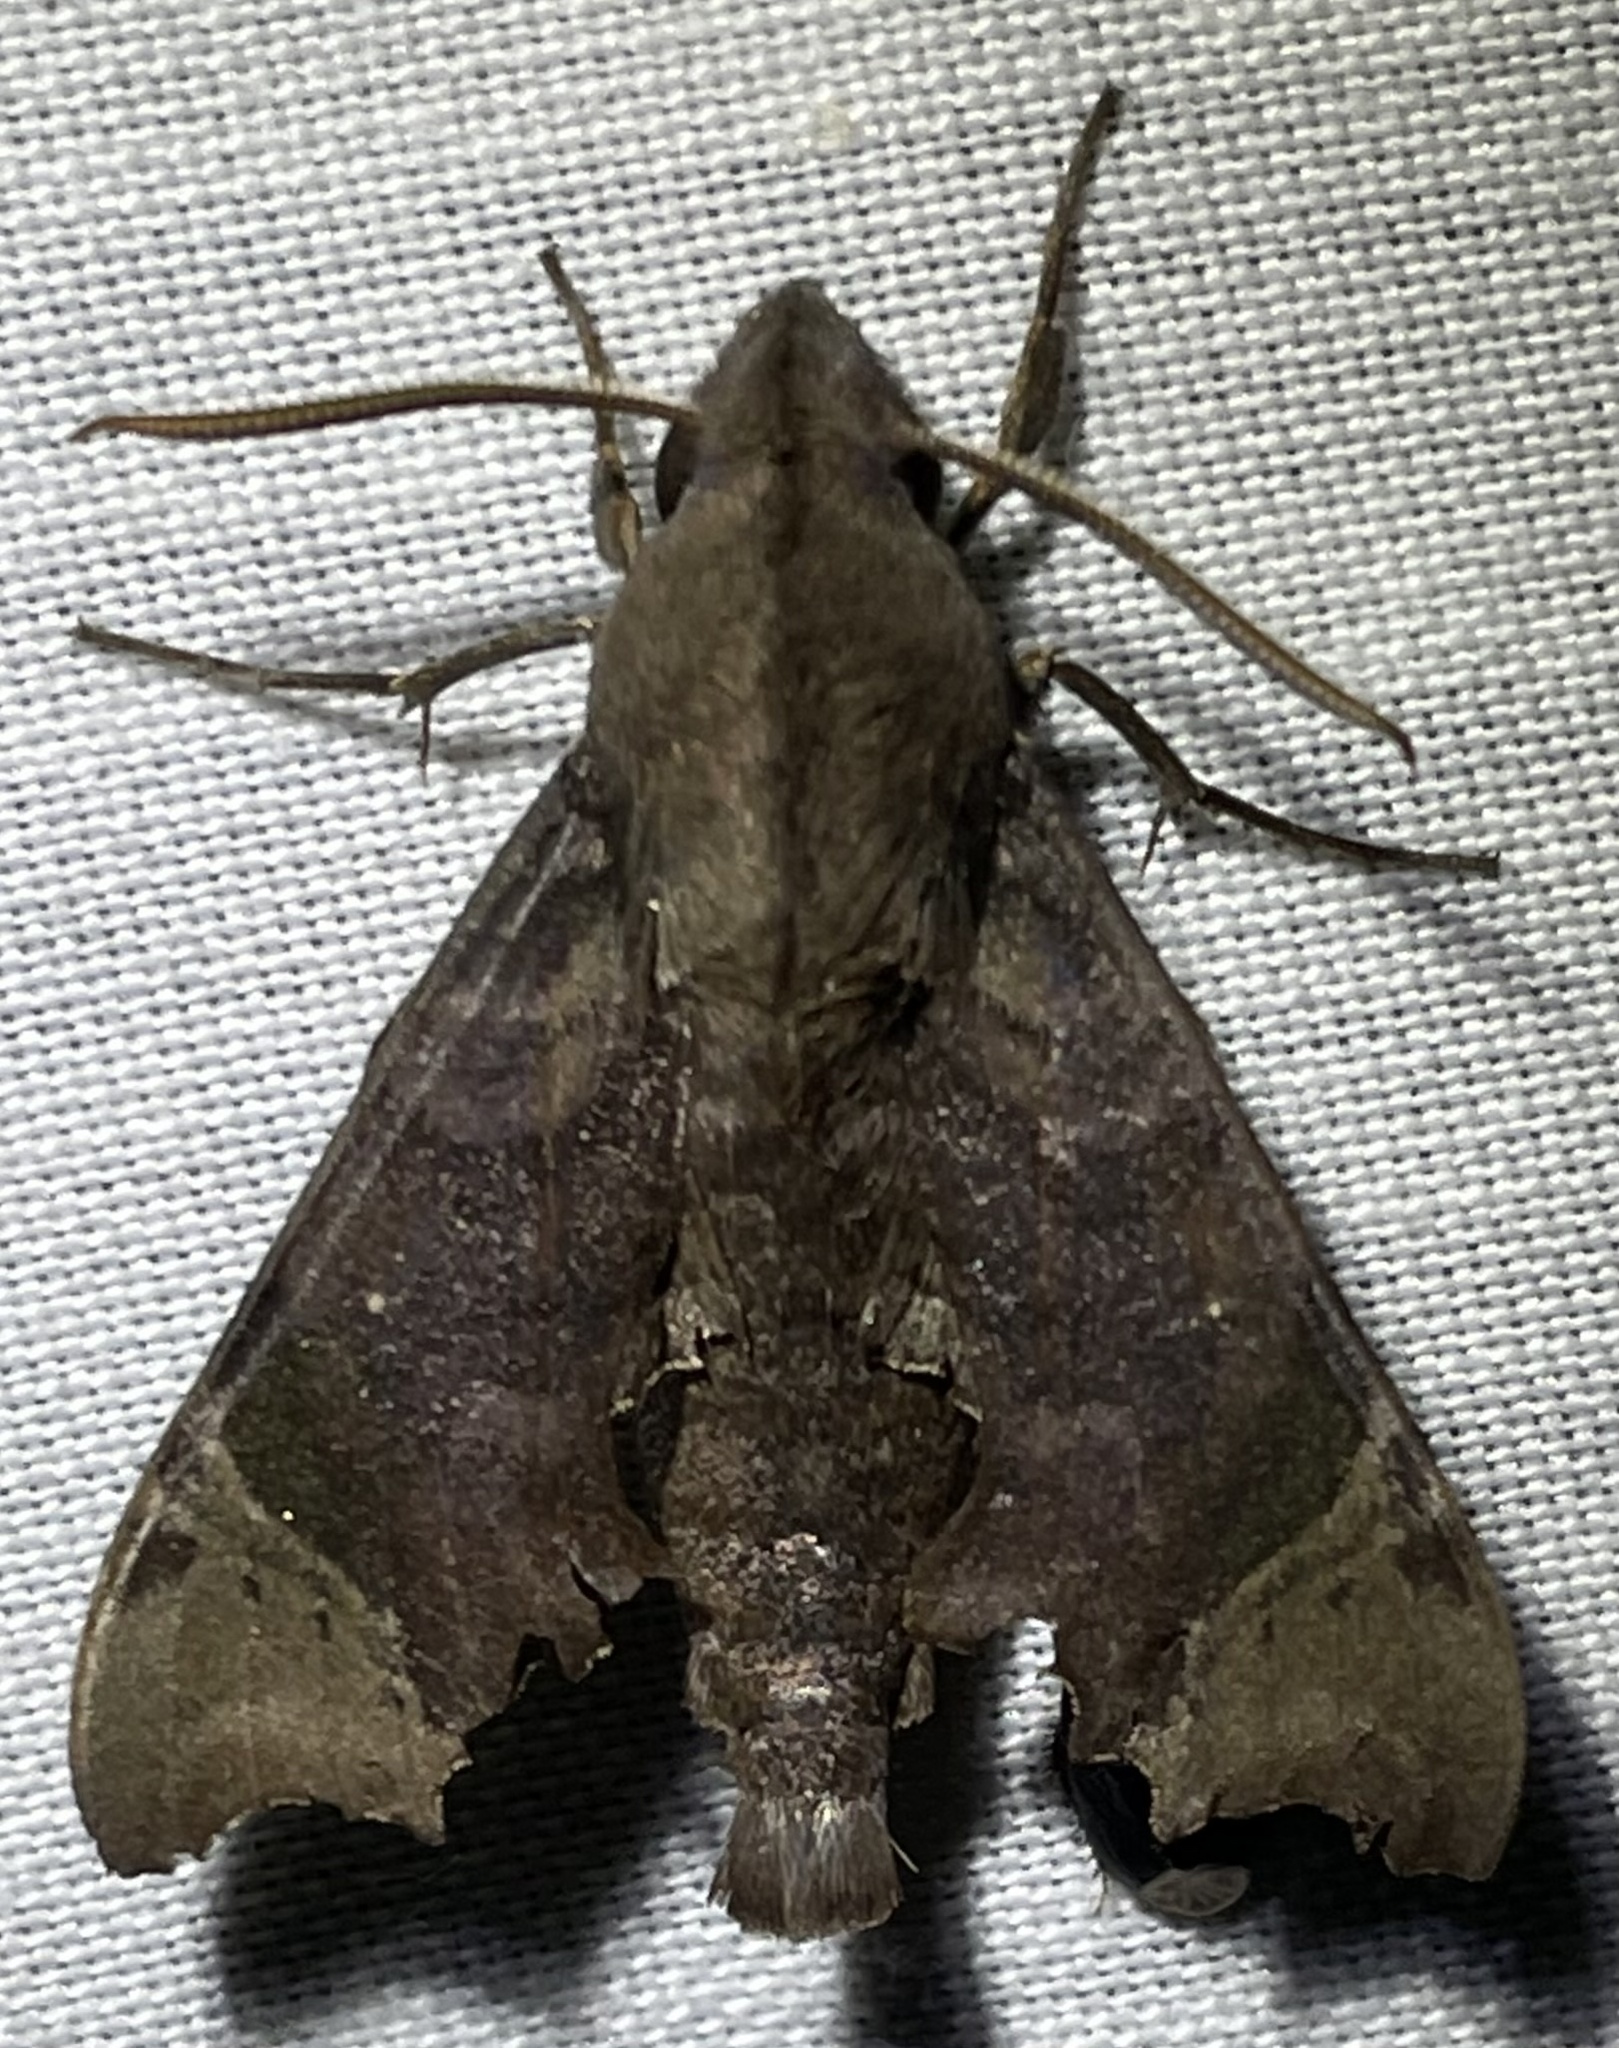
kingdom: Animalia
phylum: Arthropoda
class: Insecta
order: Lepidoptera
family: Sphingidae
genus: Temnora
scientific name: Temnora zantus
